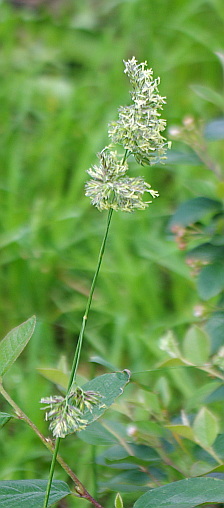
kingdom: Plantae
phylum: Tracheophyta
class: Liliopsida
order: Poales
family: Poaceae
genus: Dactylis
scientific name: Dactylis glomerata
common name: Orchardgrass
